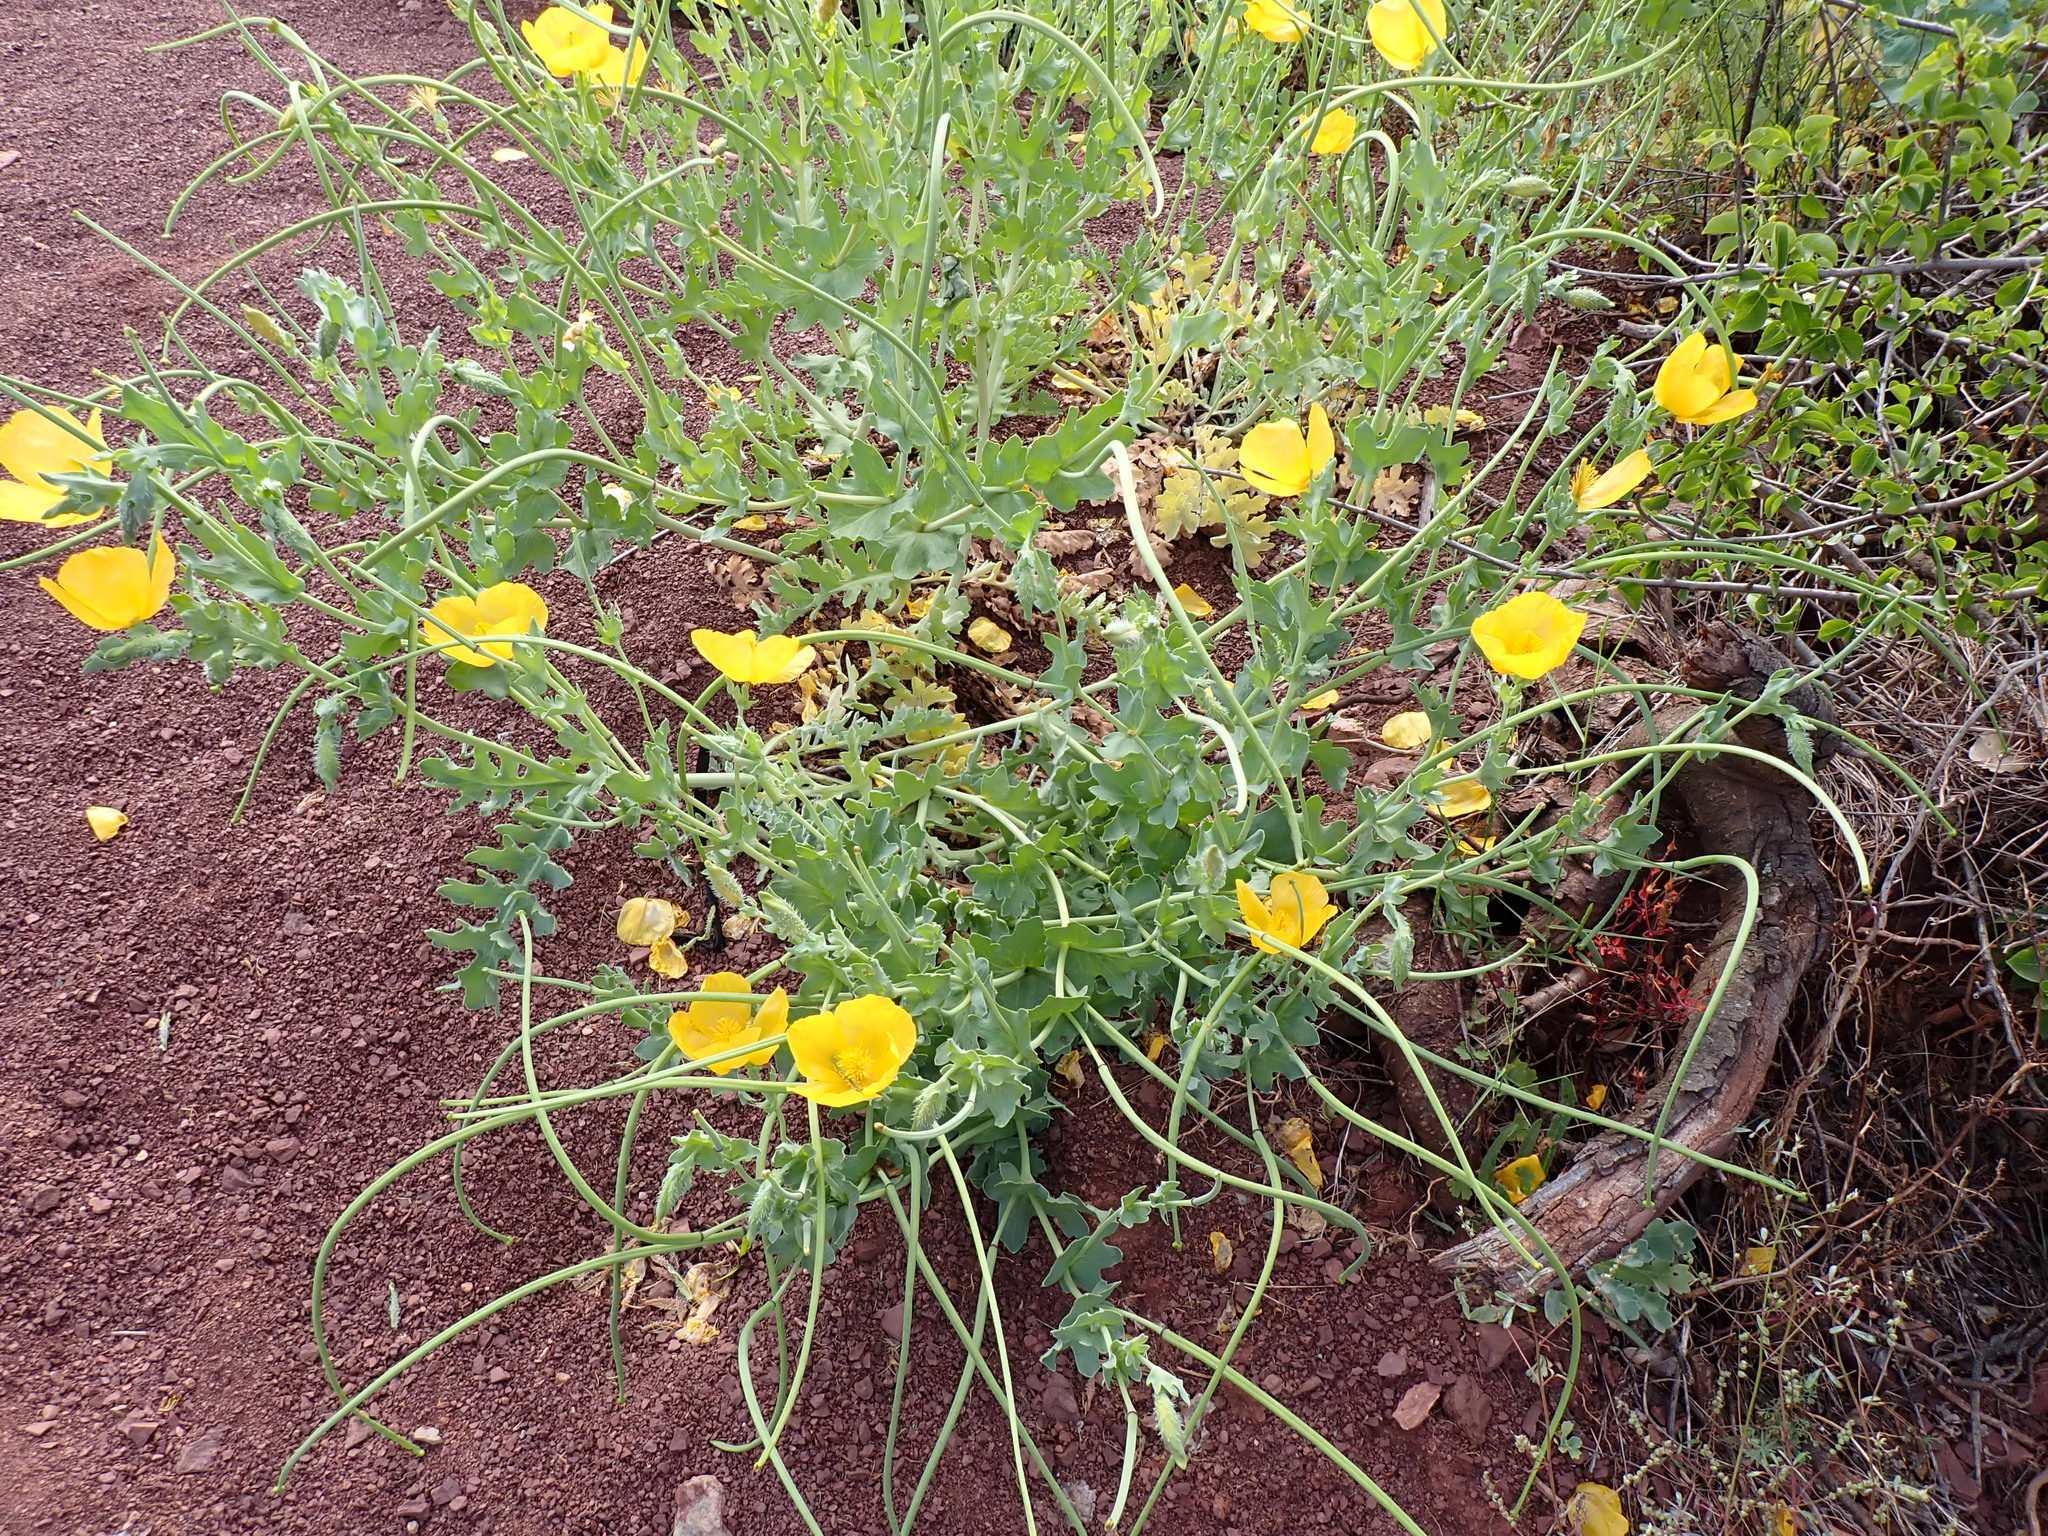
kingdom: Plantae
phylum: Tracheophyta
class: Magnoliopsida
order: Ranunculales
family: Papaveraceae
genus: Glaucium
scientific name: Glaucium flavum
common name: Yellow horned-poppy
